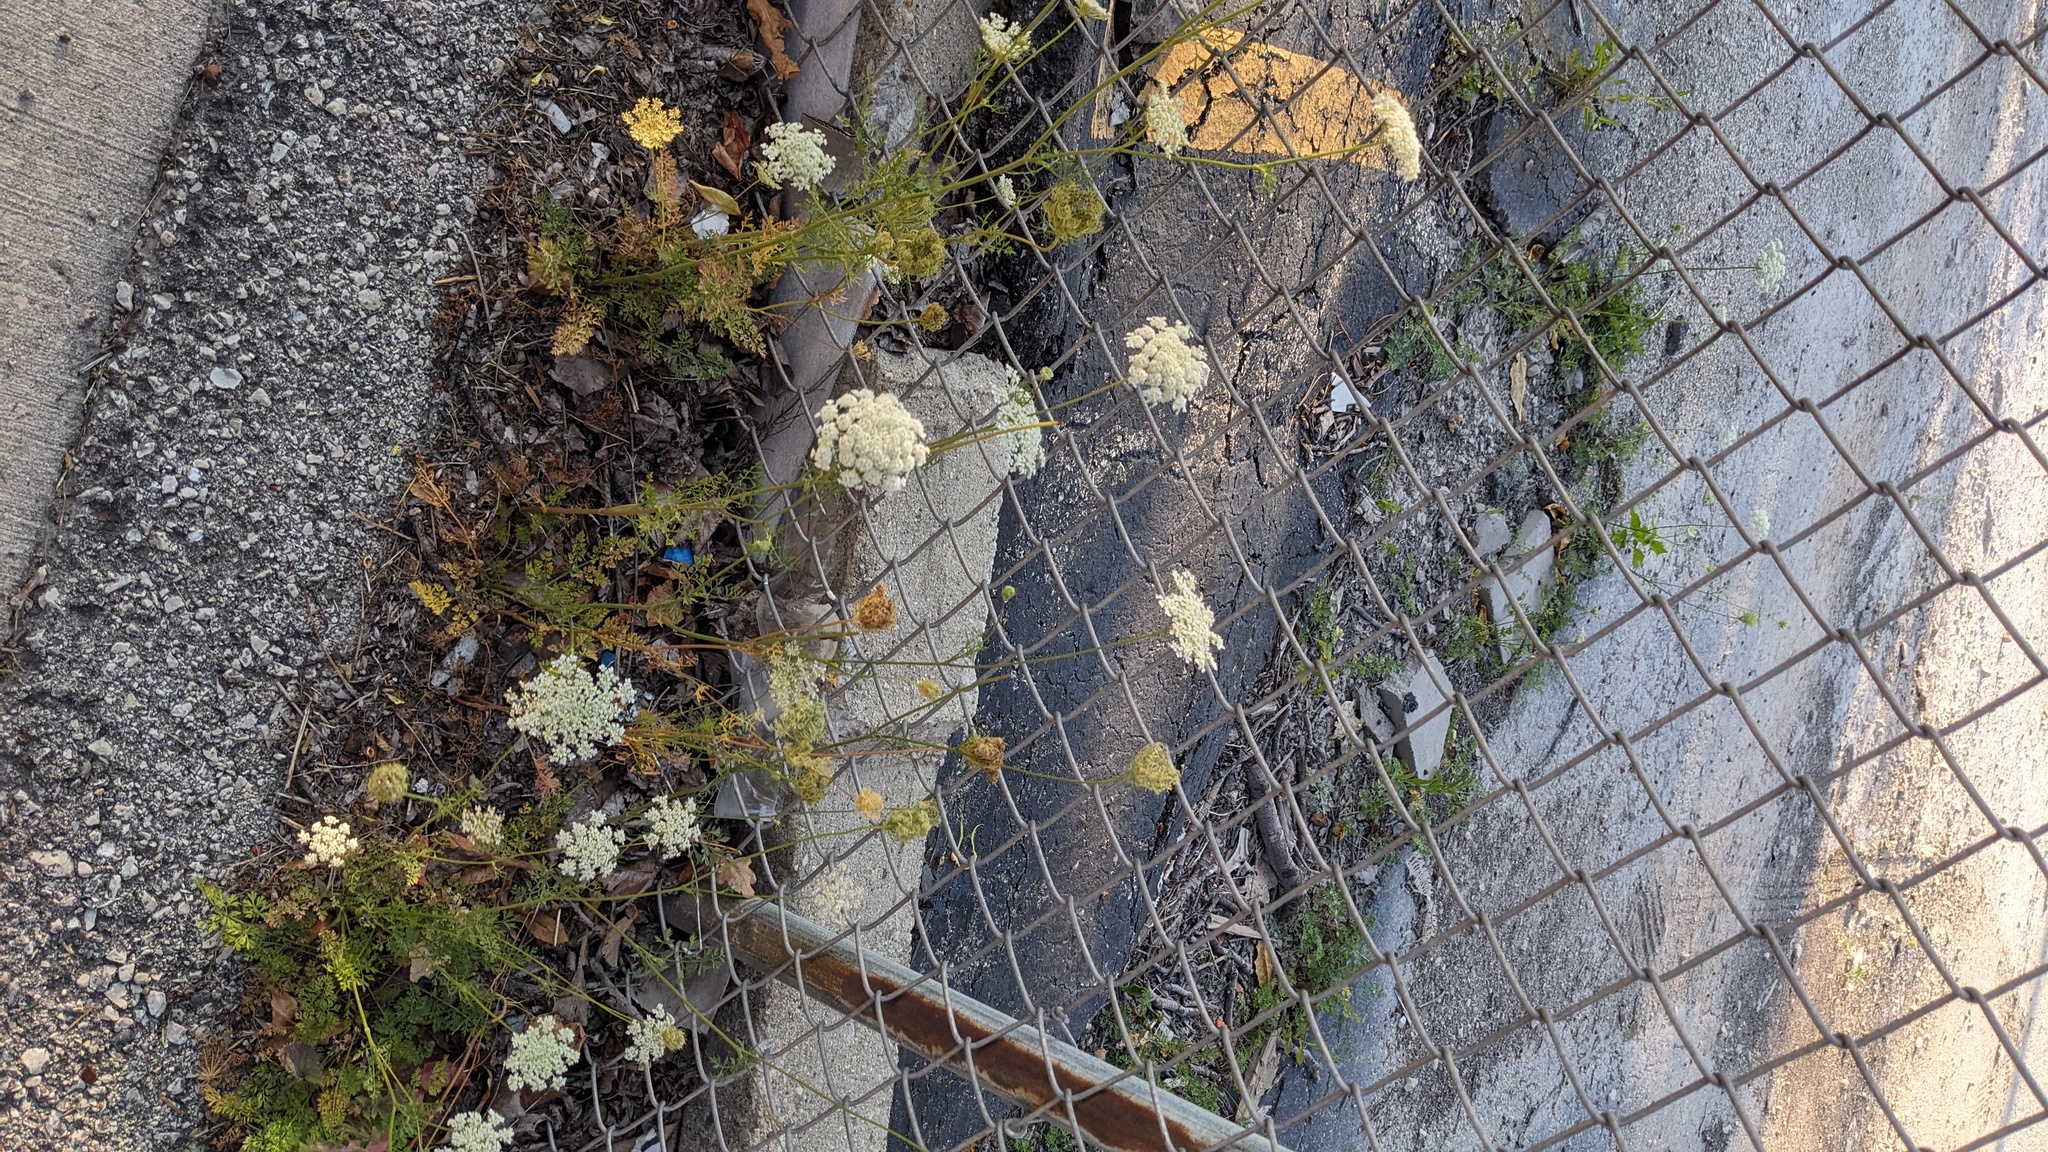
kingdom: Plantae
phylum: Tracheophyta
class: Magnoliopsida
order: Apiales
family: Apiaceae
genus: Daucus
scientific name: Daucus carota
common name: Wild carrot
